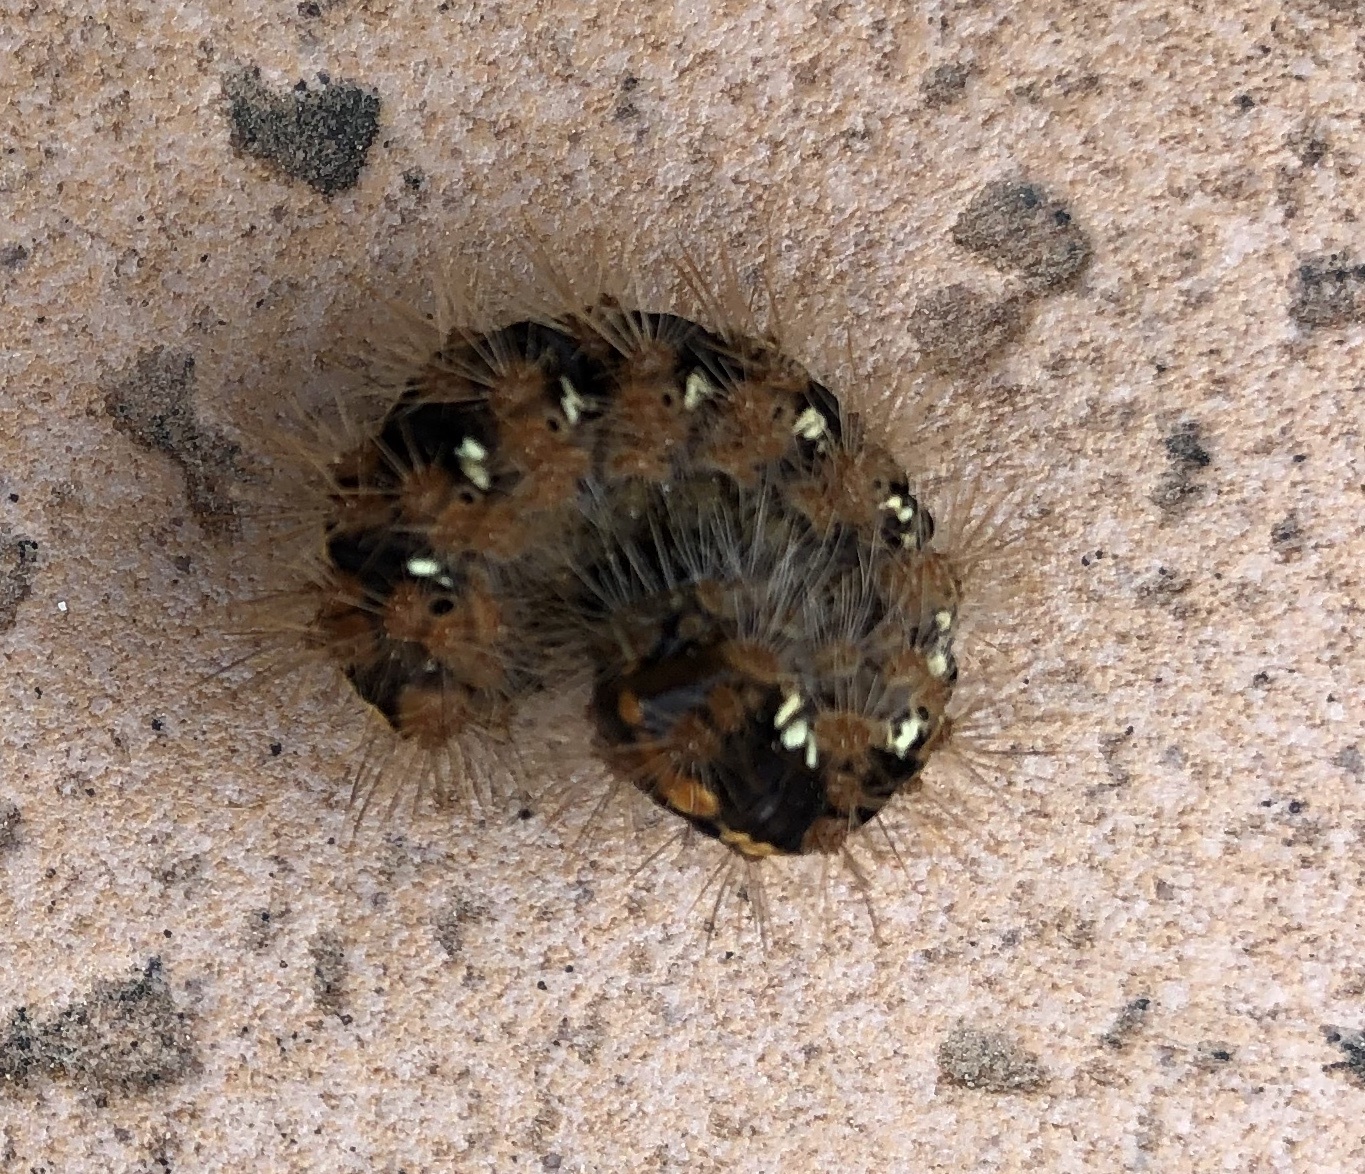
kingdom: Animalia
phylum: Arthropoda
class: Insecta
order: Lepidoptera
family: Erebidae
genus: Euplagia
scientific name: Euplagia quadripunctaria
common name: Jersey tiger
